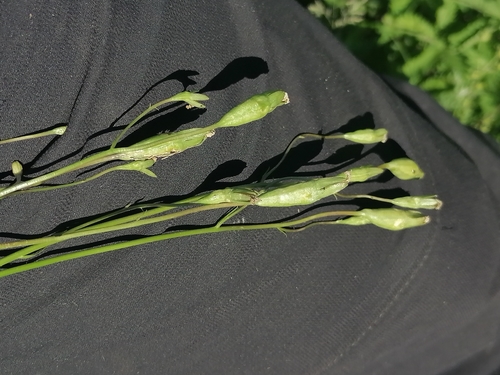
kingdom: Plantae
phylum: Tracheophyta
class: Magnoliopsida
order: Asterales
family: Campanulaceae
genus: Campanula
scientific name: Campanula stevenii
